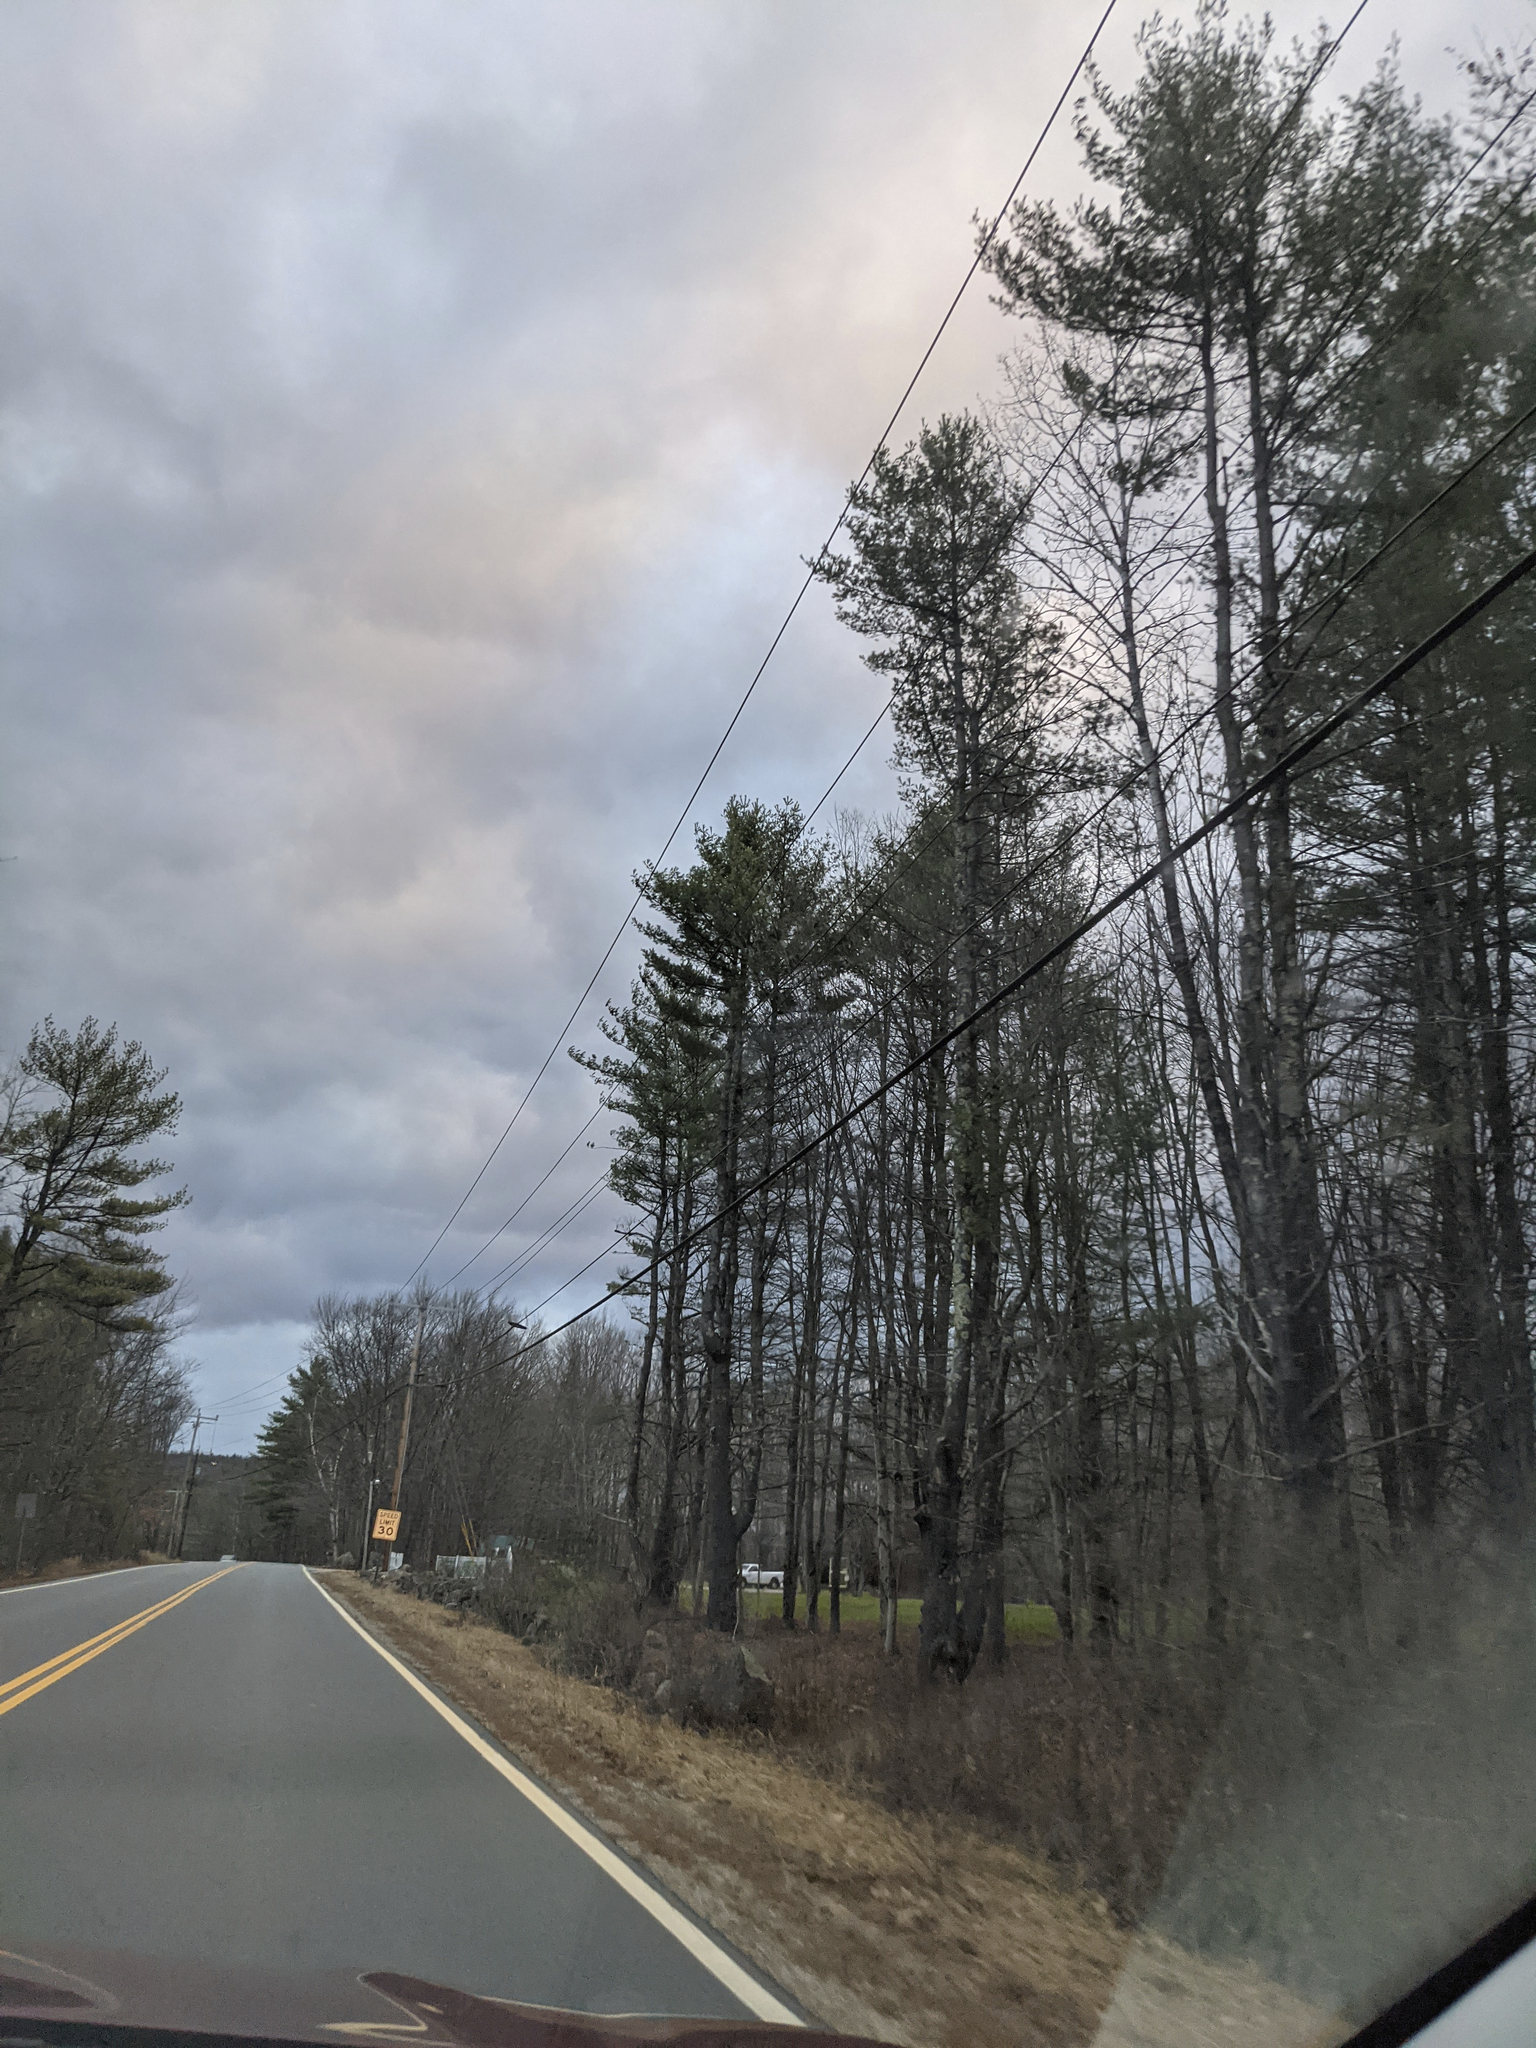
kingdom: Plantae
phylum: Tracheophyta
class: Pinopsida
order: Pinales
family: Pinaceae
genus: Pinus
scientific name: Pinus strobus
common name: Weymouth pine
